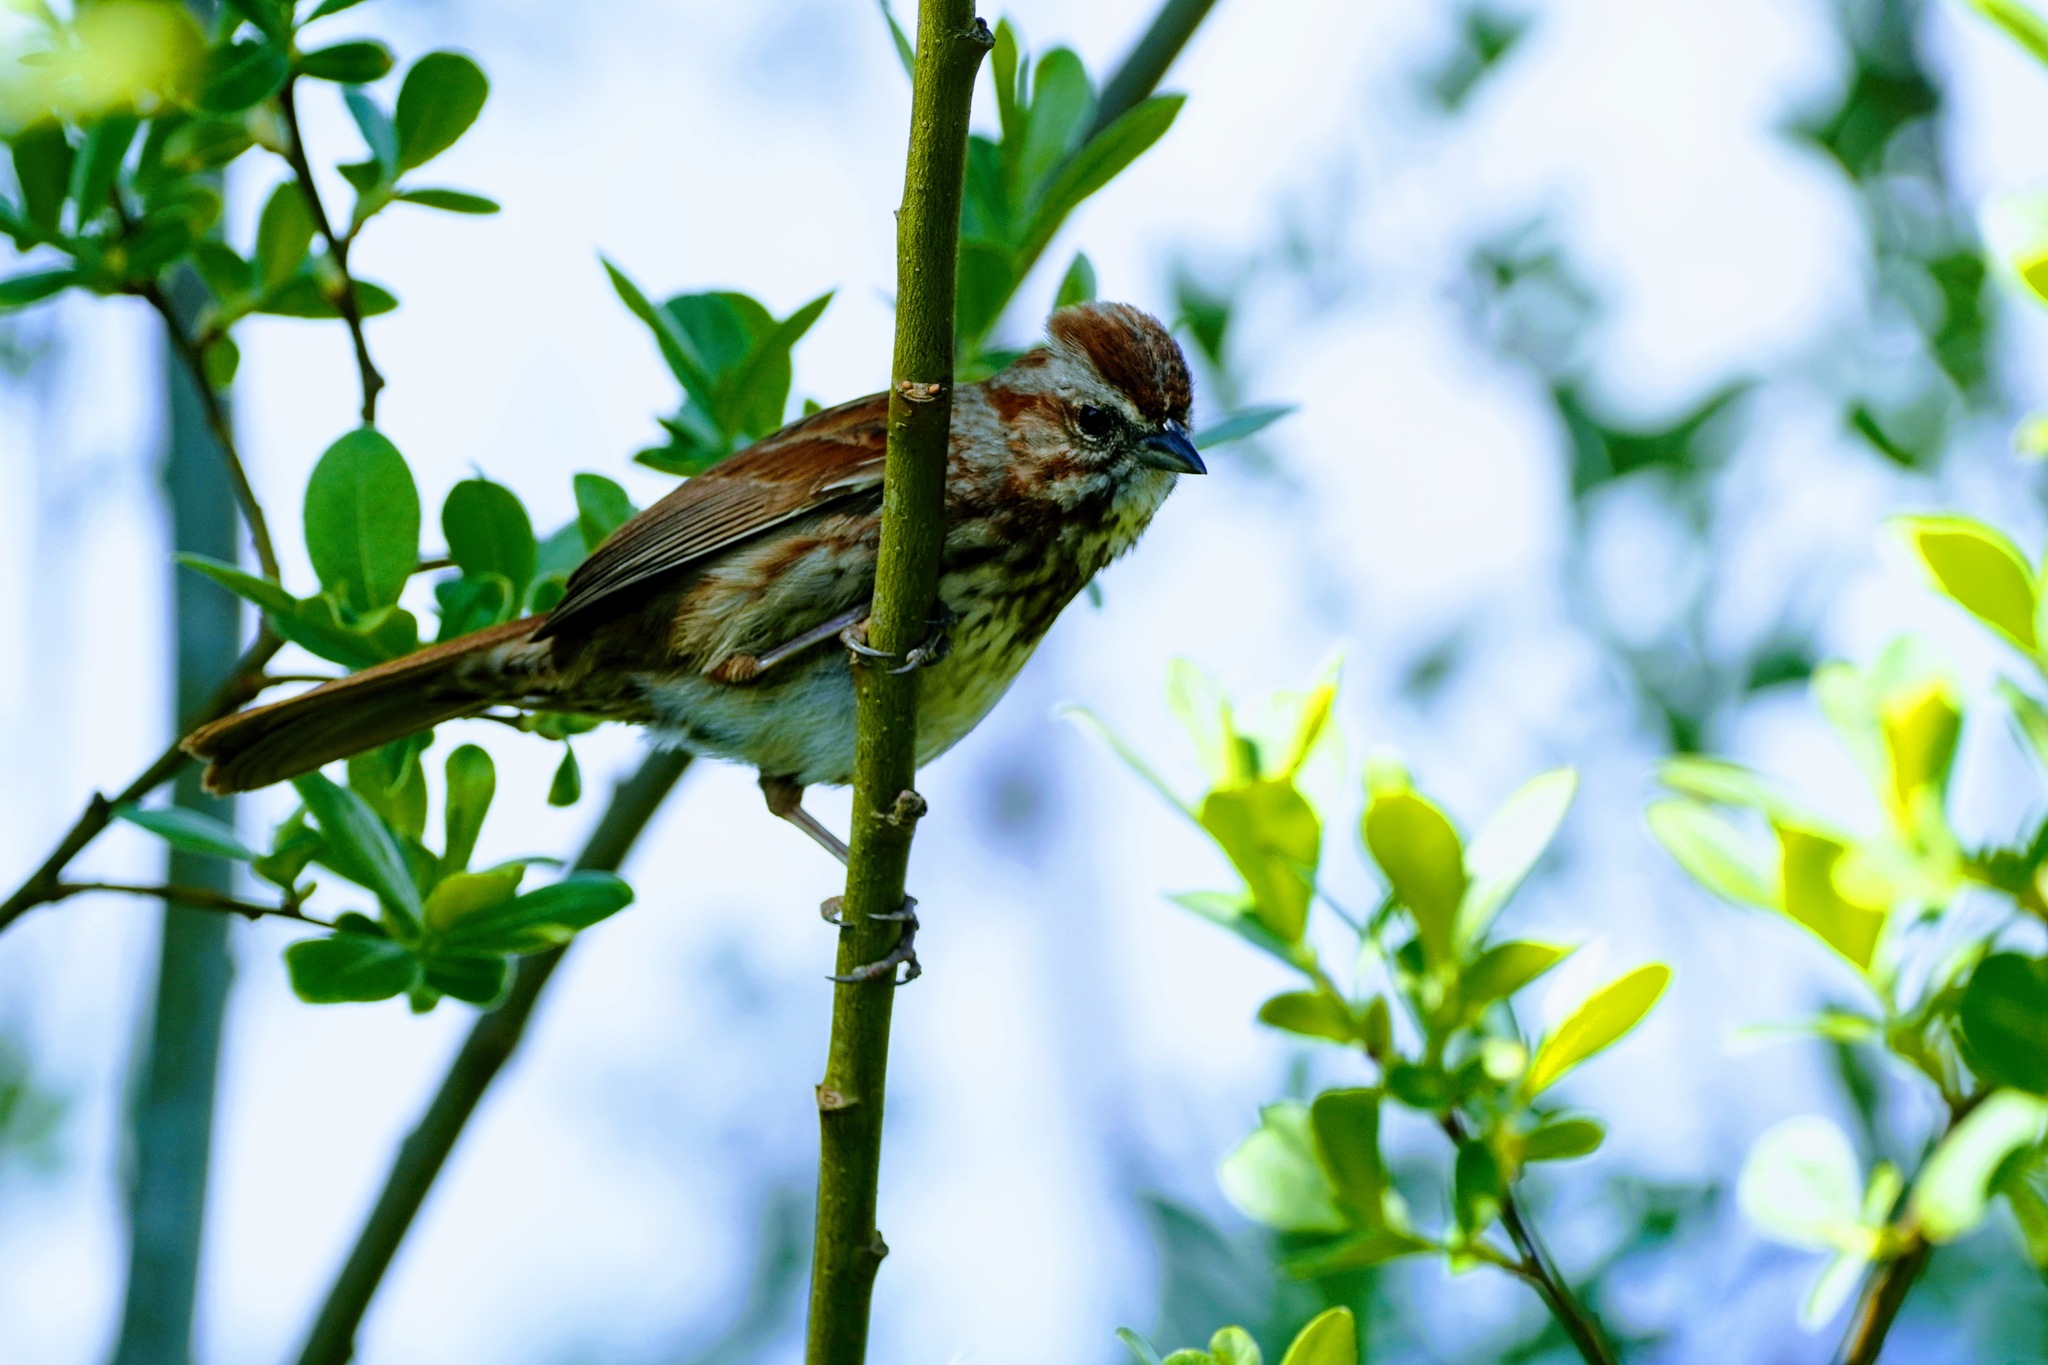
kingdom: Animalia
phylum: Chordata
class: Aves
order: Passeriformes
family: Passerellidae
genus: Melospiza
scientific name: Melospiza melodia
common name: Song sparrow
